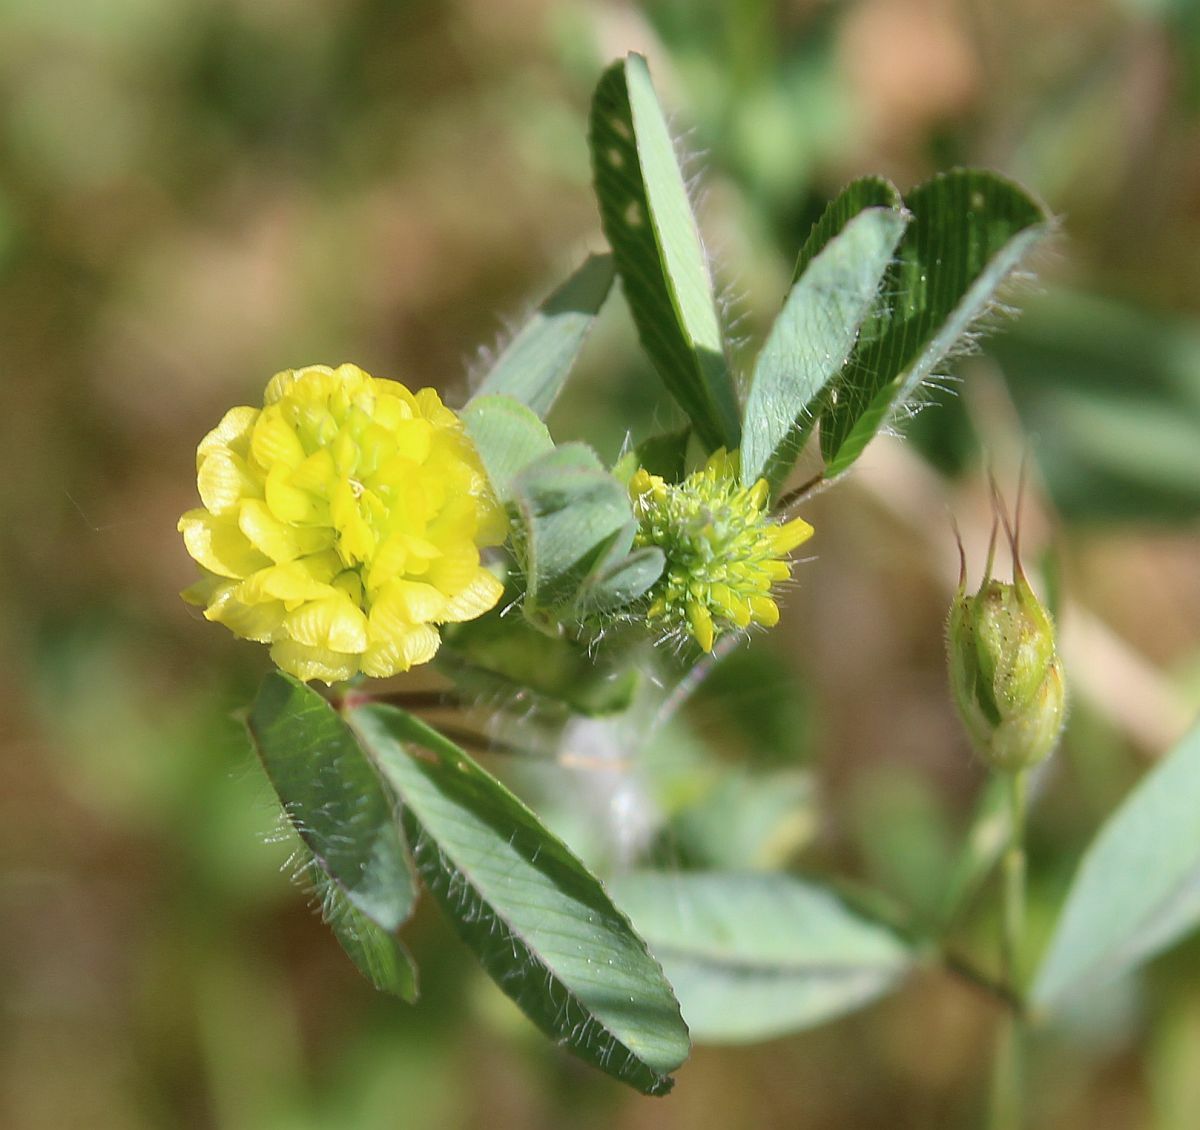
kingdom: Plantae
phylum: Tracheophyta
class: Magnoliopsida
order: Fabales
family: Fabaceae
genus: Trifolium
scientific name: Trifolium campestre
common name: Field clover
